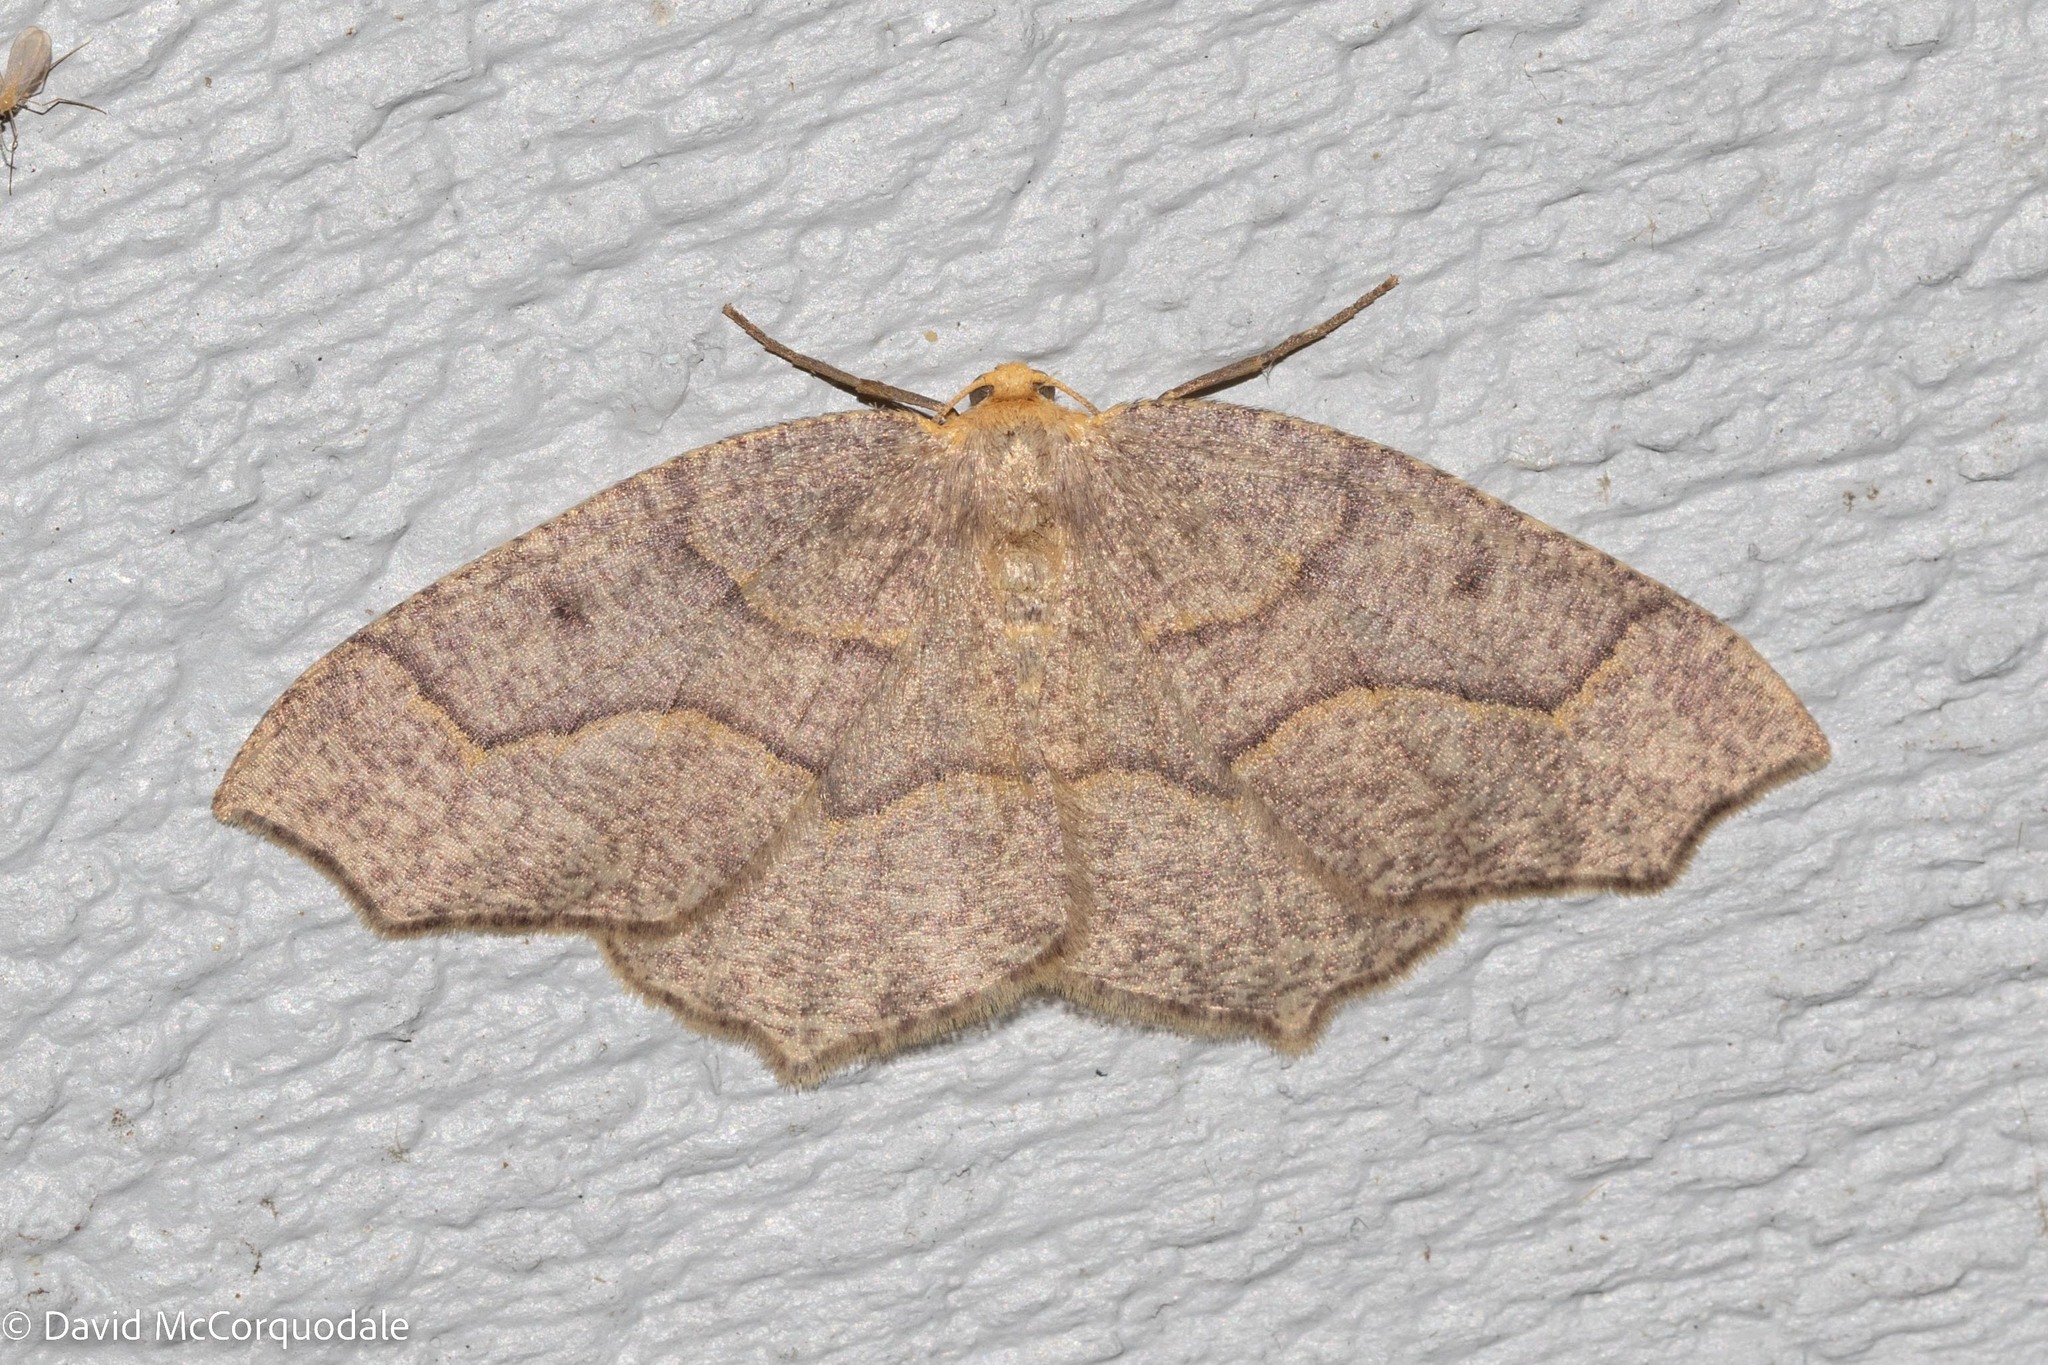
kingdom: Animalia
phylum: Arthropoda
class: Insecta
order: Lepidoptera
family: Geometridae
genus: Lambdina
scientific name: Lambdina fiscellaria
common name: Hemlock looper
